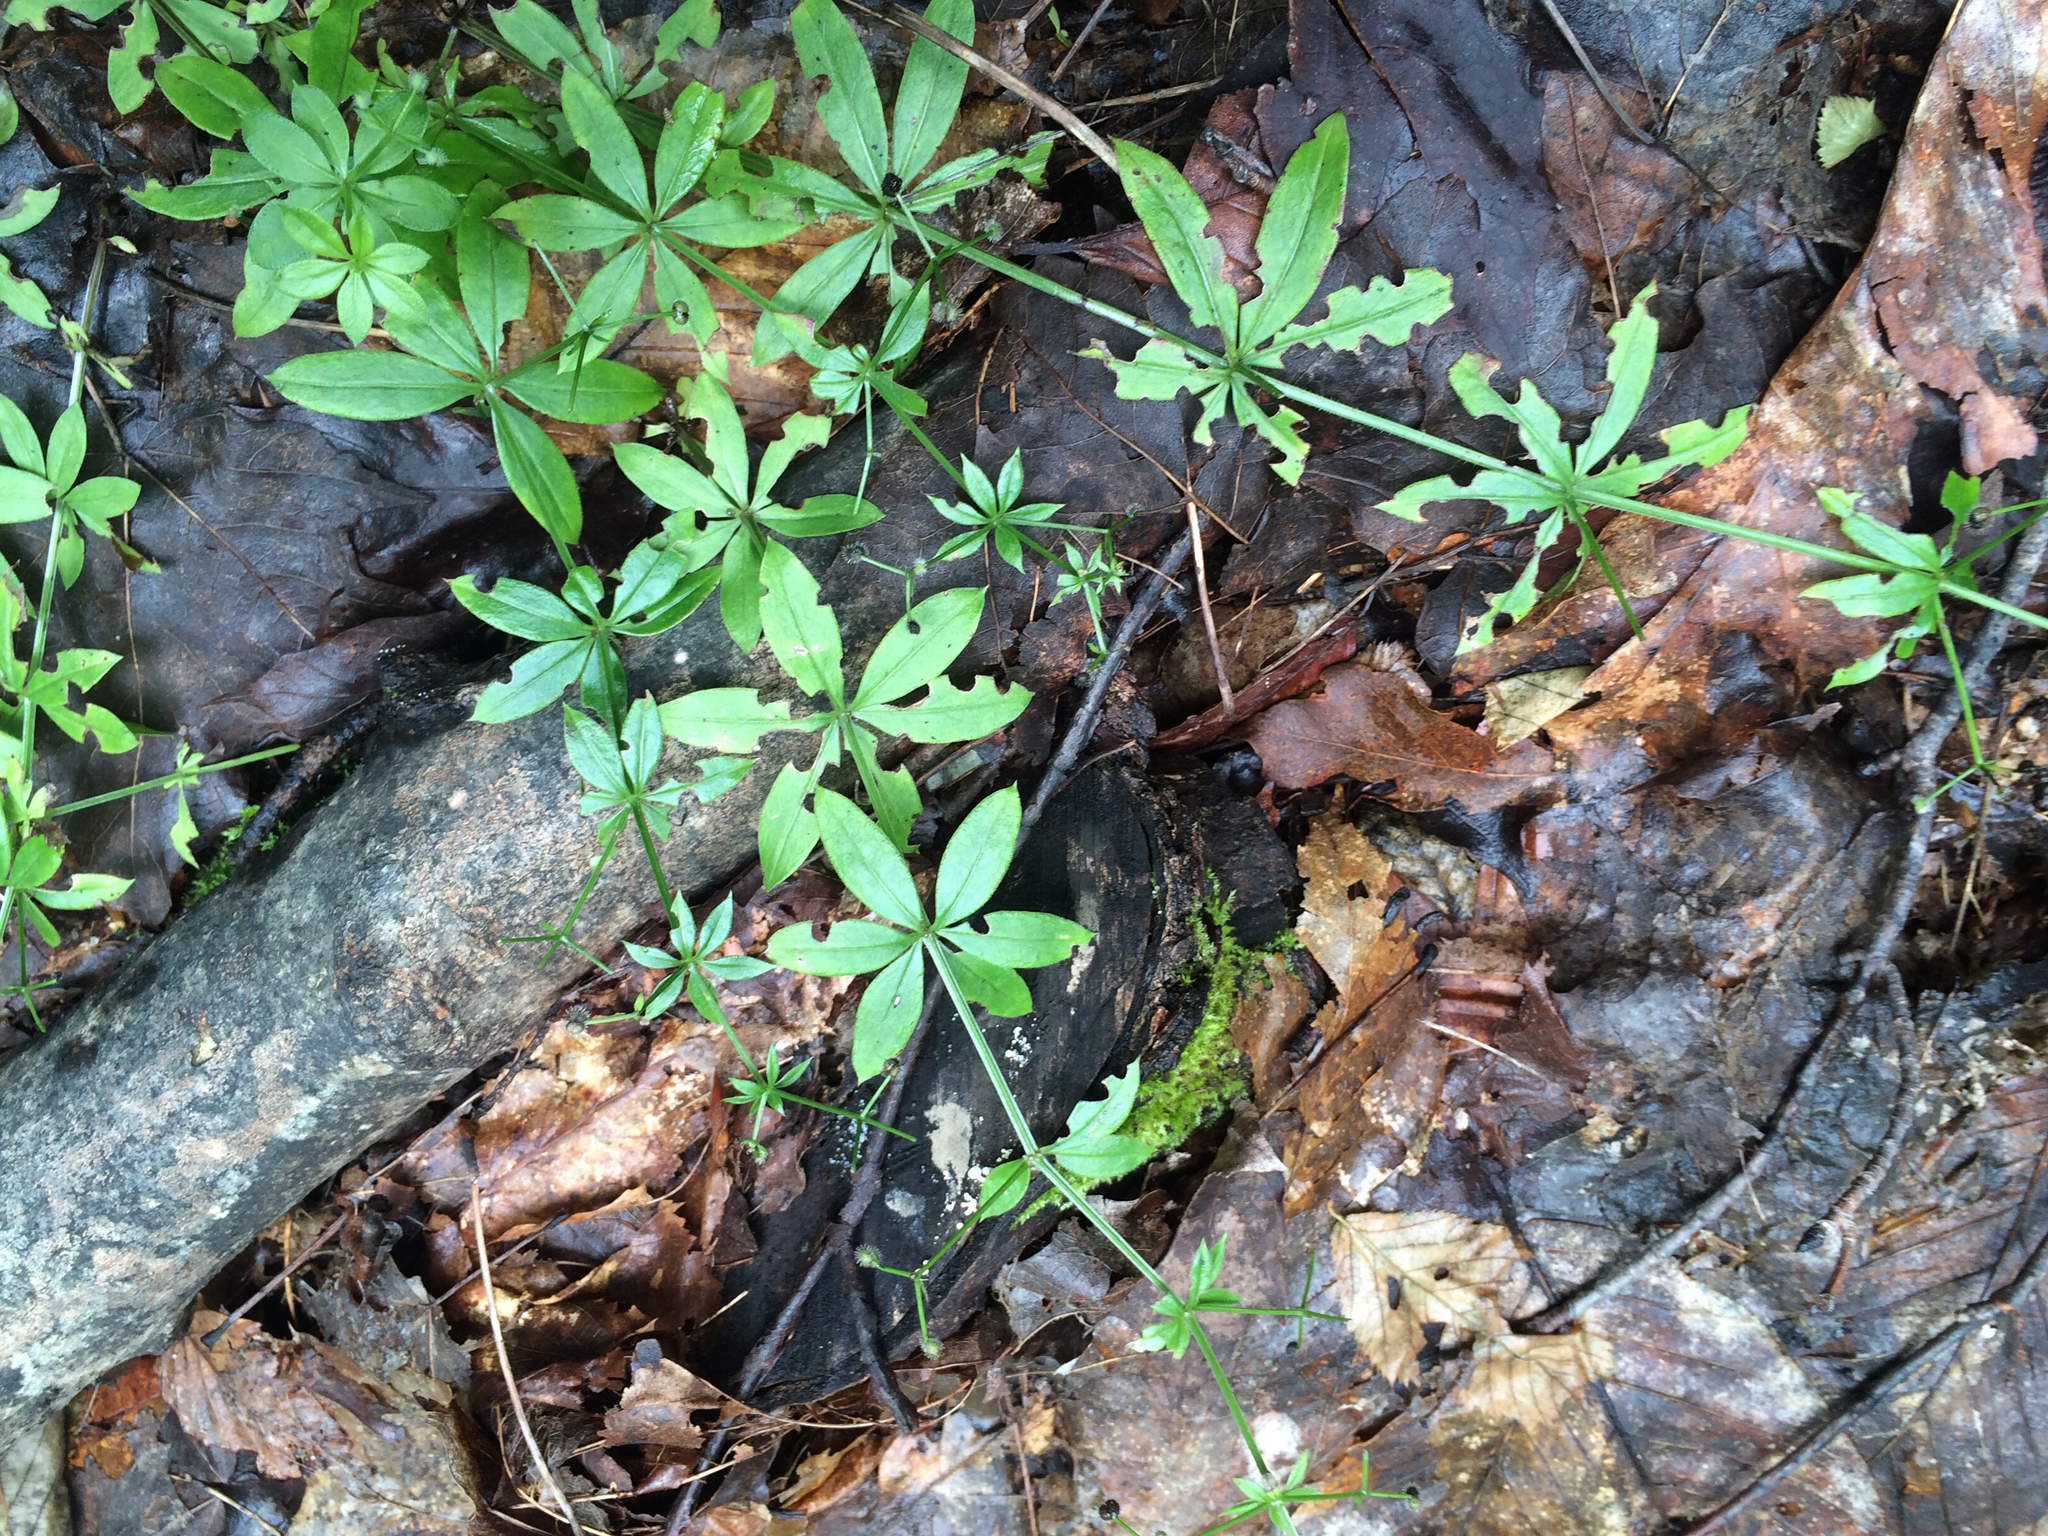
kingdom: Plantae
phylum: Tracheophyta
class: Magnoliopsida
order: Gentianales
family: Rubiaceae
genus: Galium
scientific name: Galium triflorum
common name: Fragrant bedstraw
